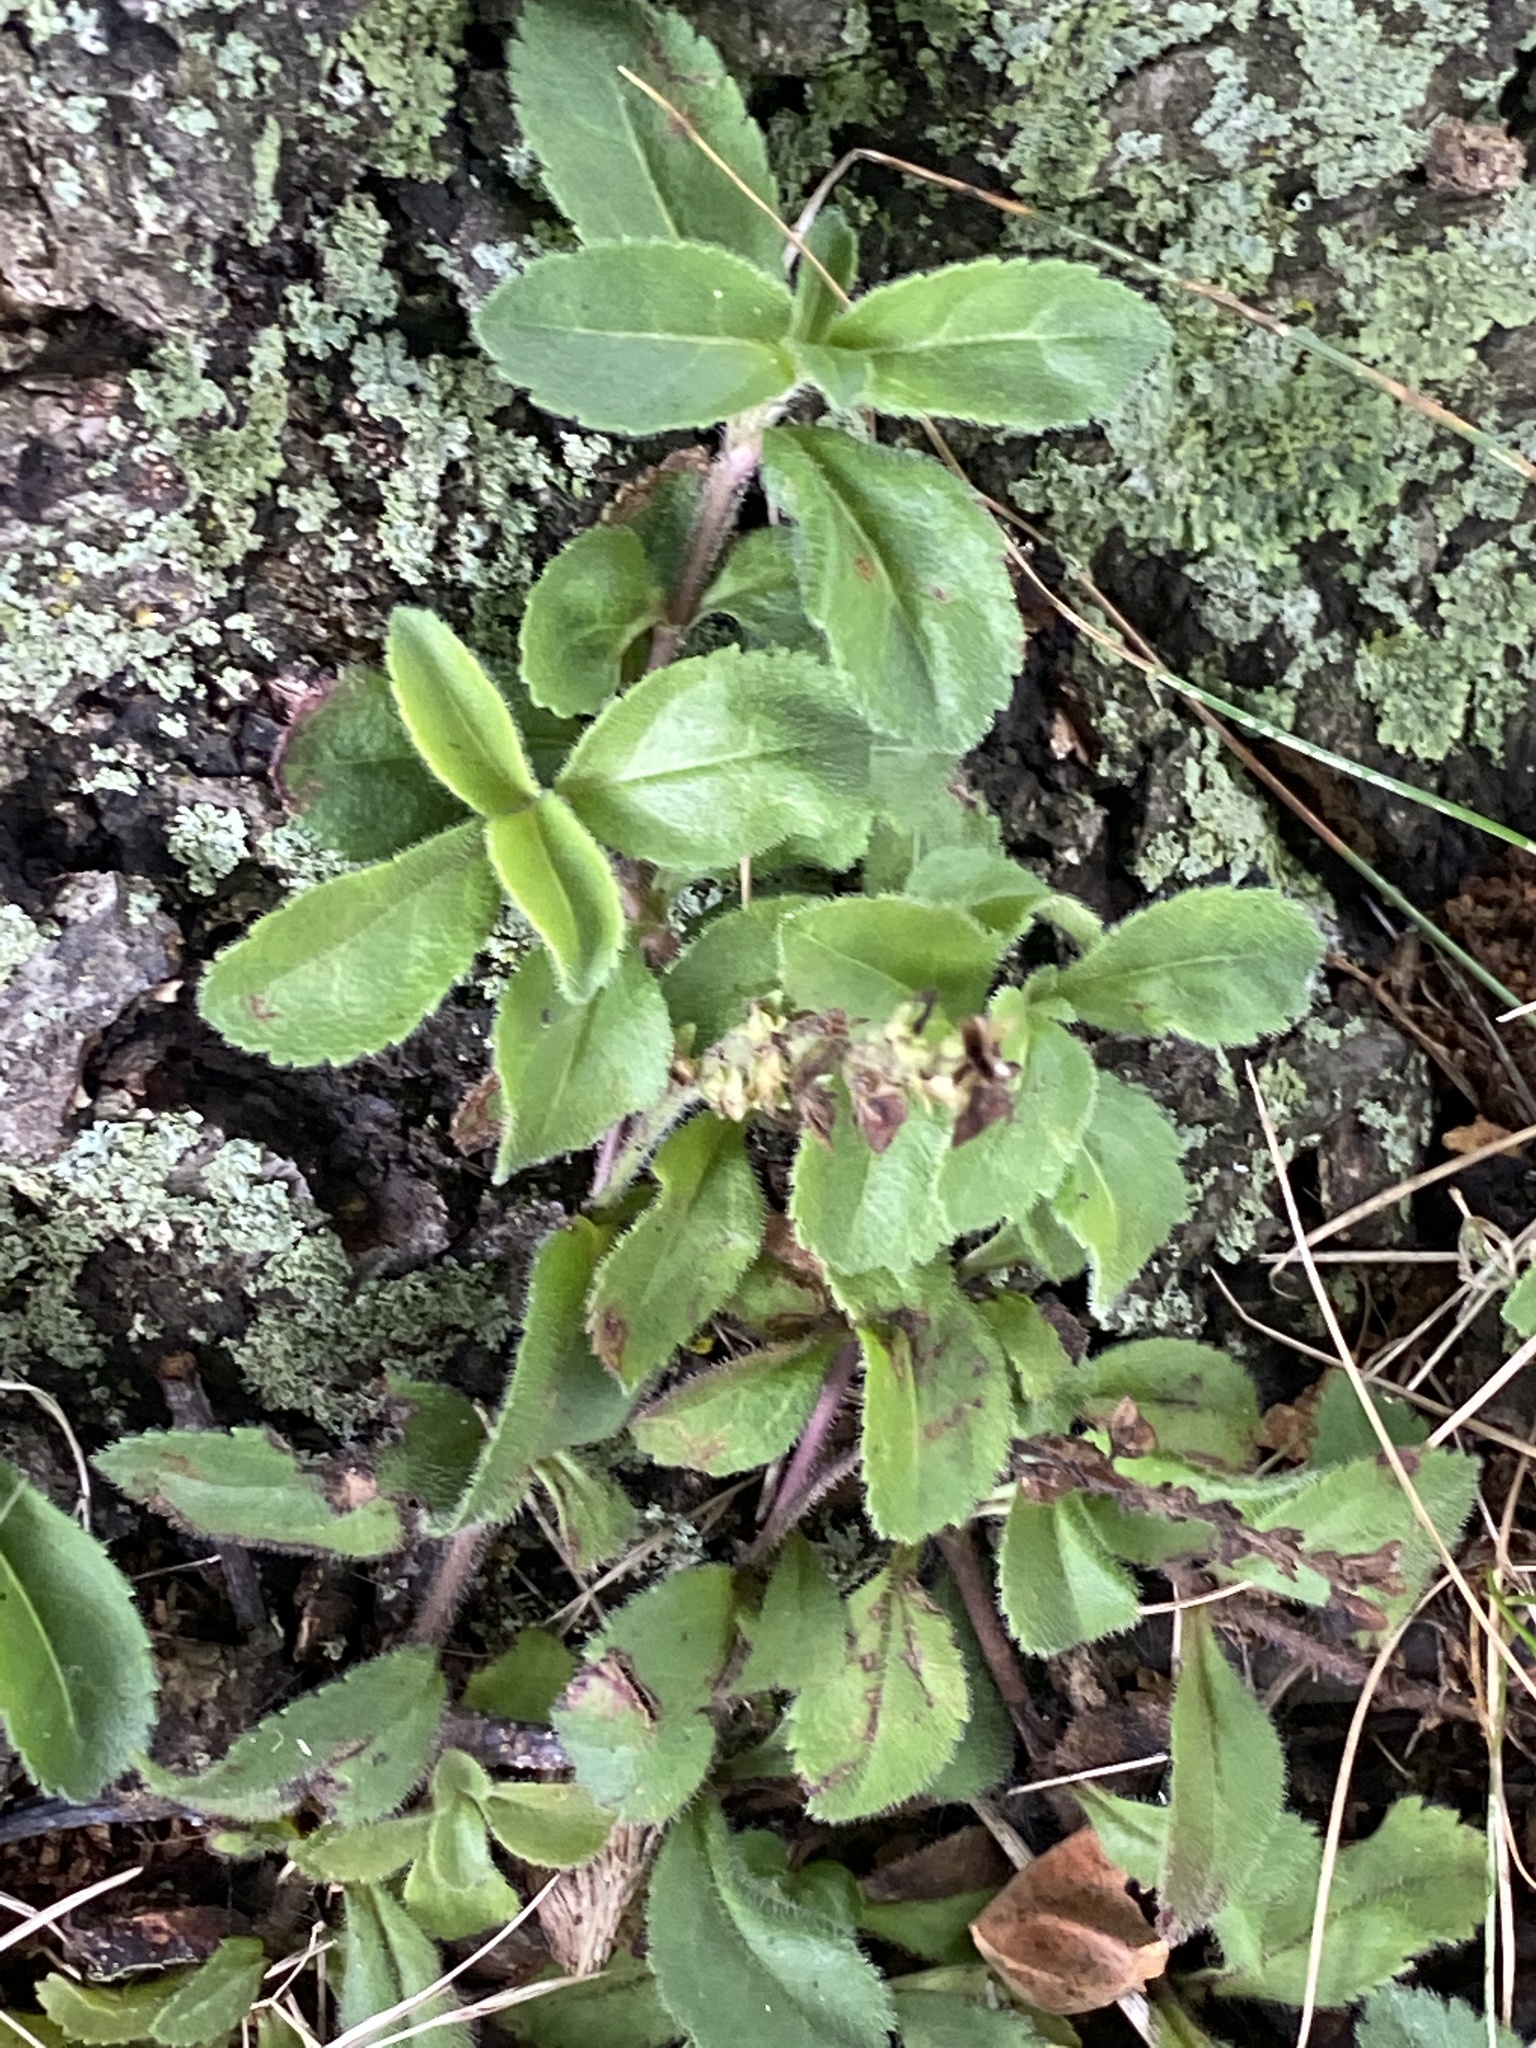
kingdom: Plantae
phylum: Tracheophyta
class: Magnoliopsida
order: Lamiales
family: Plantaginaceae
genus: Veronica
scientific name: Veronica officinalis
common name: Common speedwell
